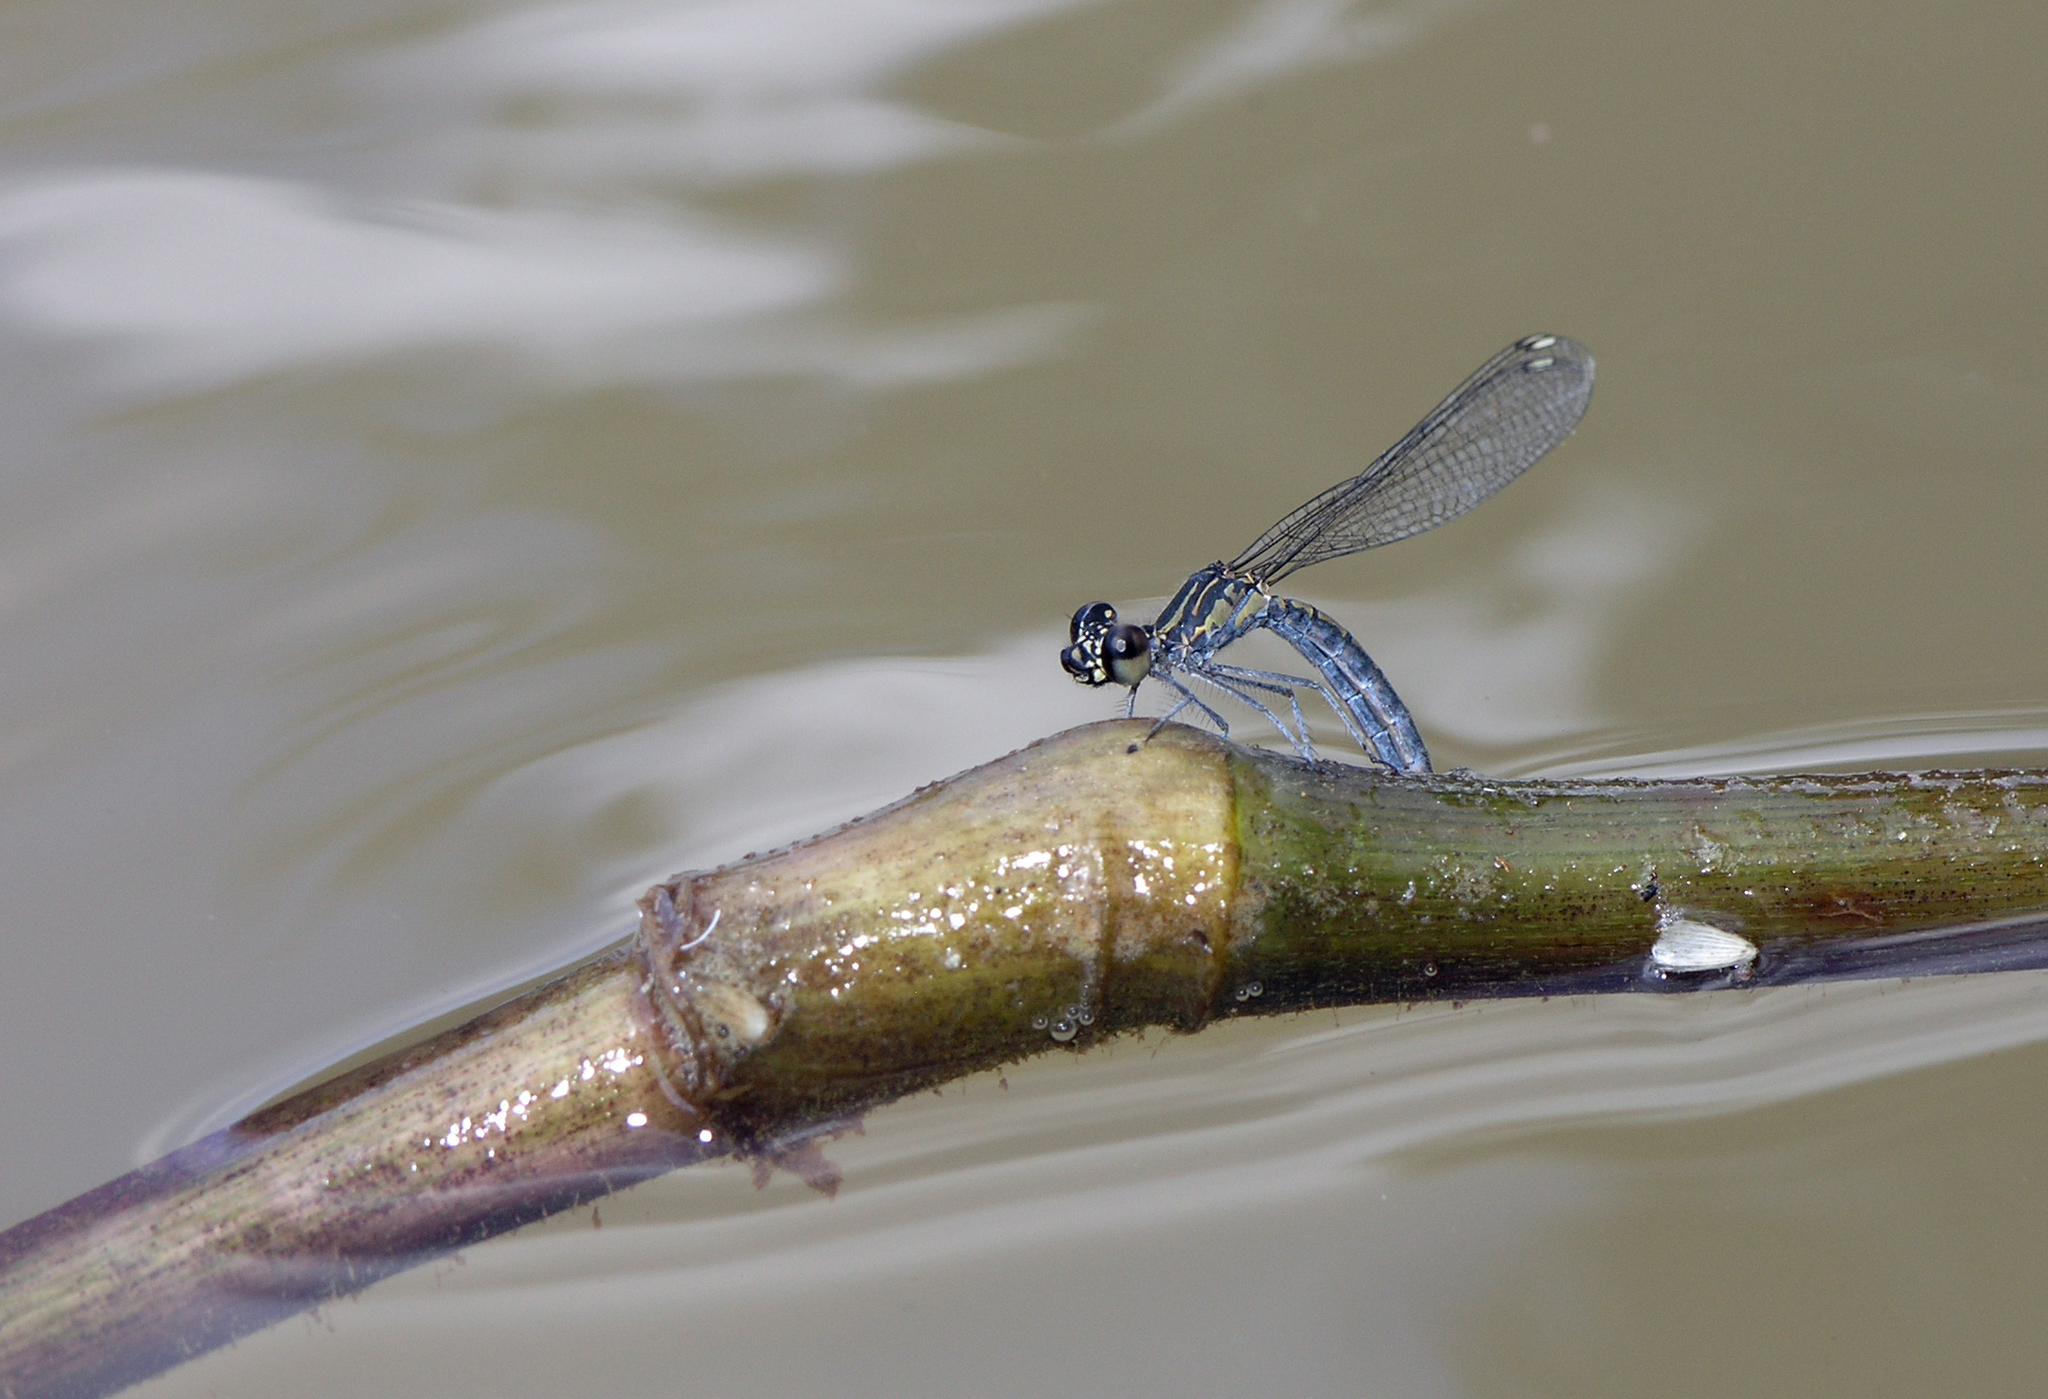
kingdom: Animalia
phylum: Arthropoda
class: Insecta
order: Odonata
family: Chlorocyphidae
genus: Libellago
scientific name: Libellago lineata
